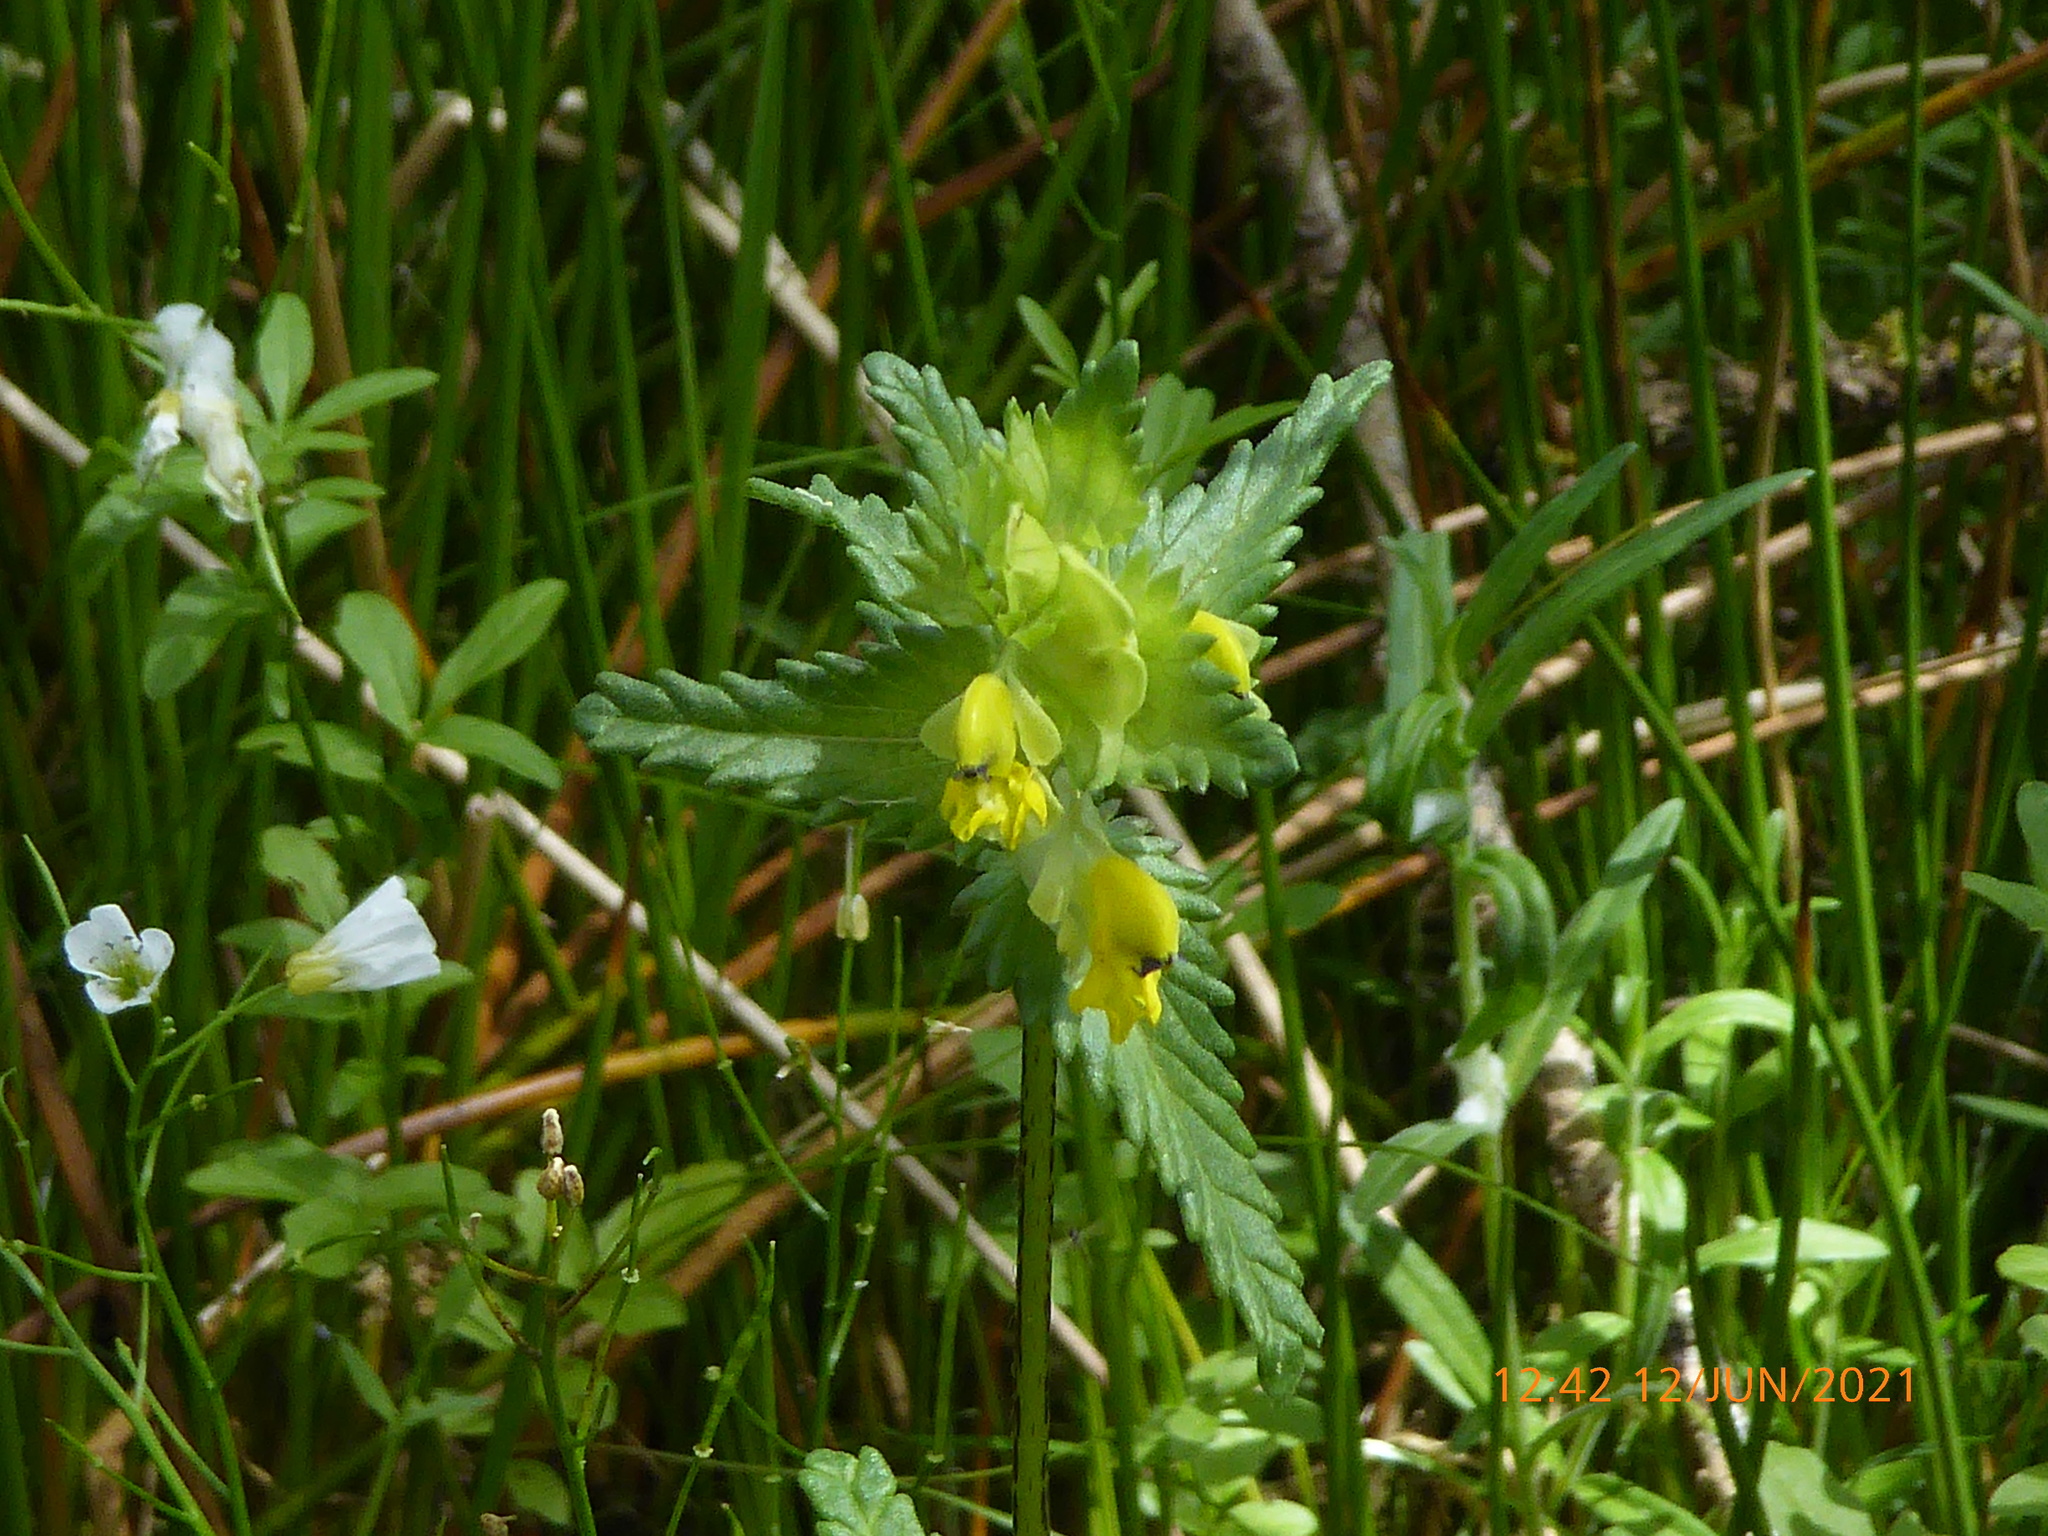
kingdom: Plantae
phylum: Tracheophyta
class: Magnoliopsida
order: Lamiales
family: Orobanchaceae
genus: Rhinanthus
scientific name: Rhinanthus minor
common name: Yellow-rattle
